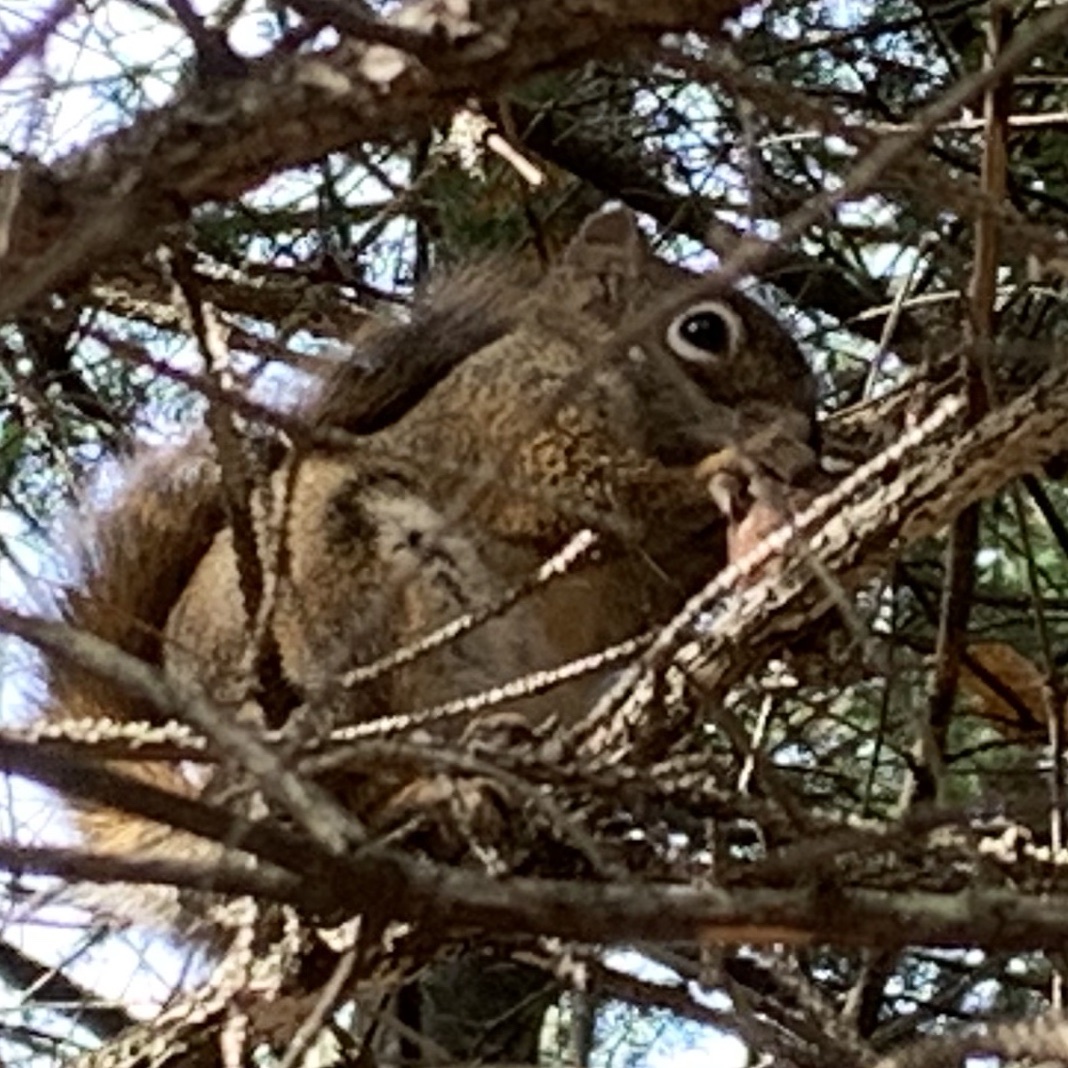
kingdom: Animalia
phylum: Chordata
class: Mammalia
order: Rodentia
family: Sciuridae
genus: Tamiasciurus
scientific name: Tamiasciurus hudsonicus
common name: Red squirrel
